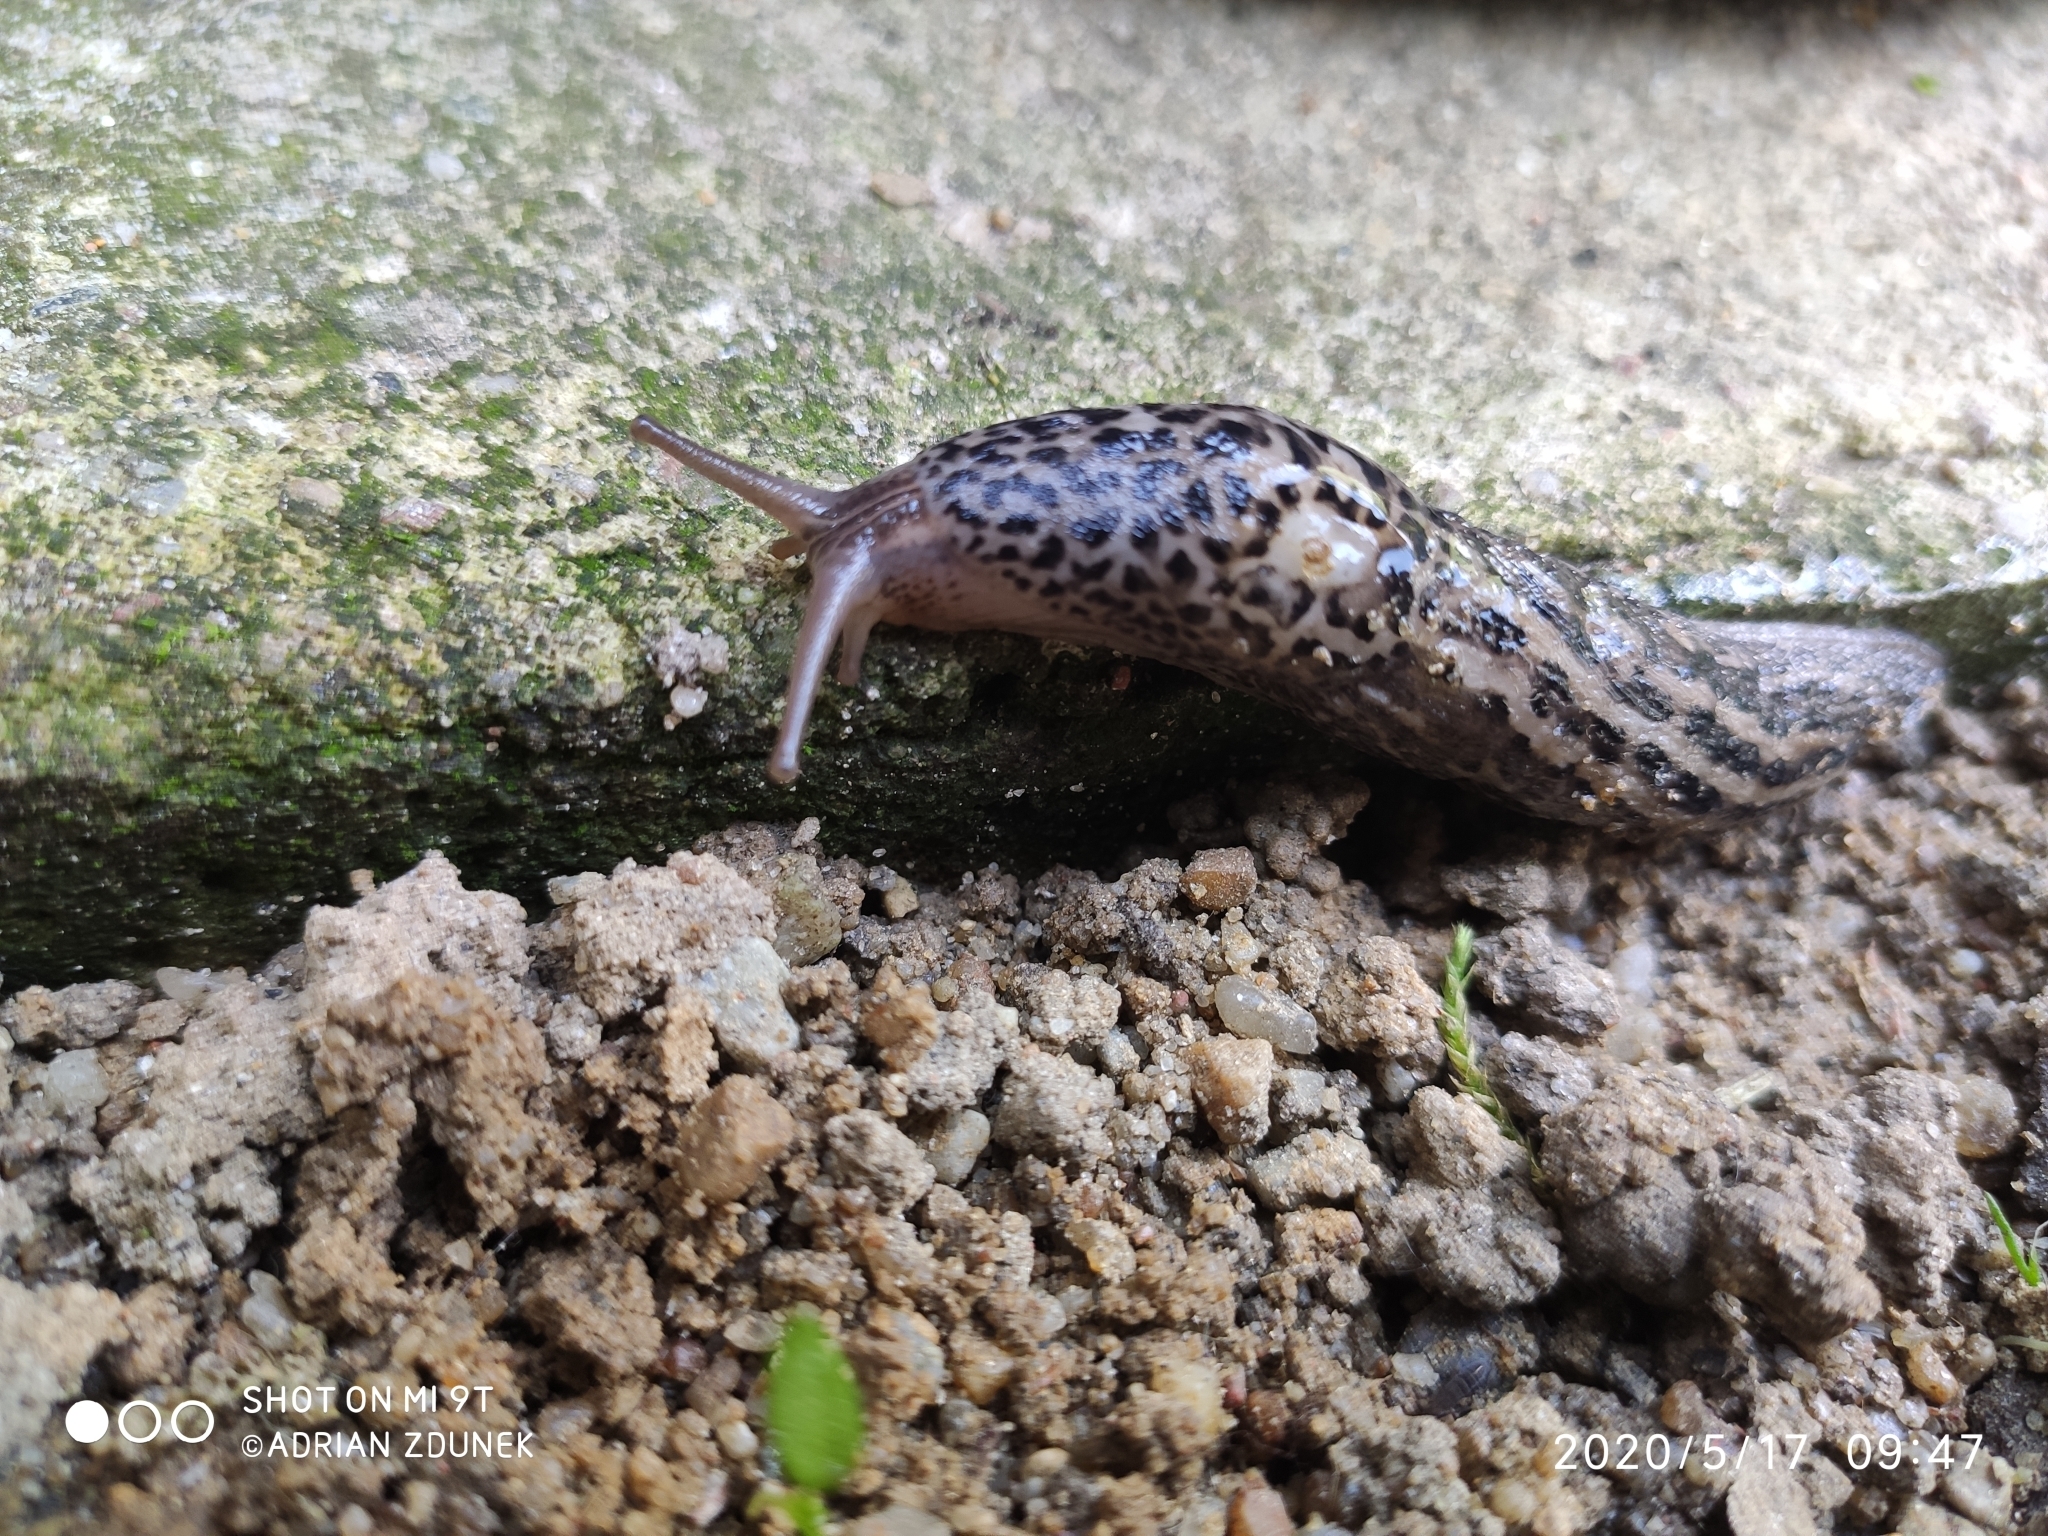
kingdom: Animalia
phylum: Mollusca
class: Gastropoda
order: Stylommatophora
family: Limacidae
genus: Limax
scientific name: Limax maximus
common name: Great grey slug
